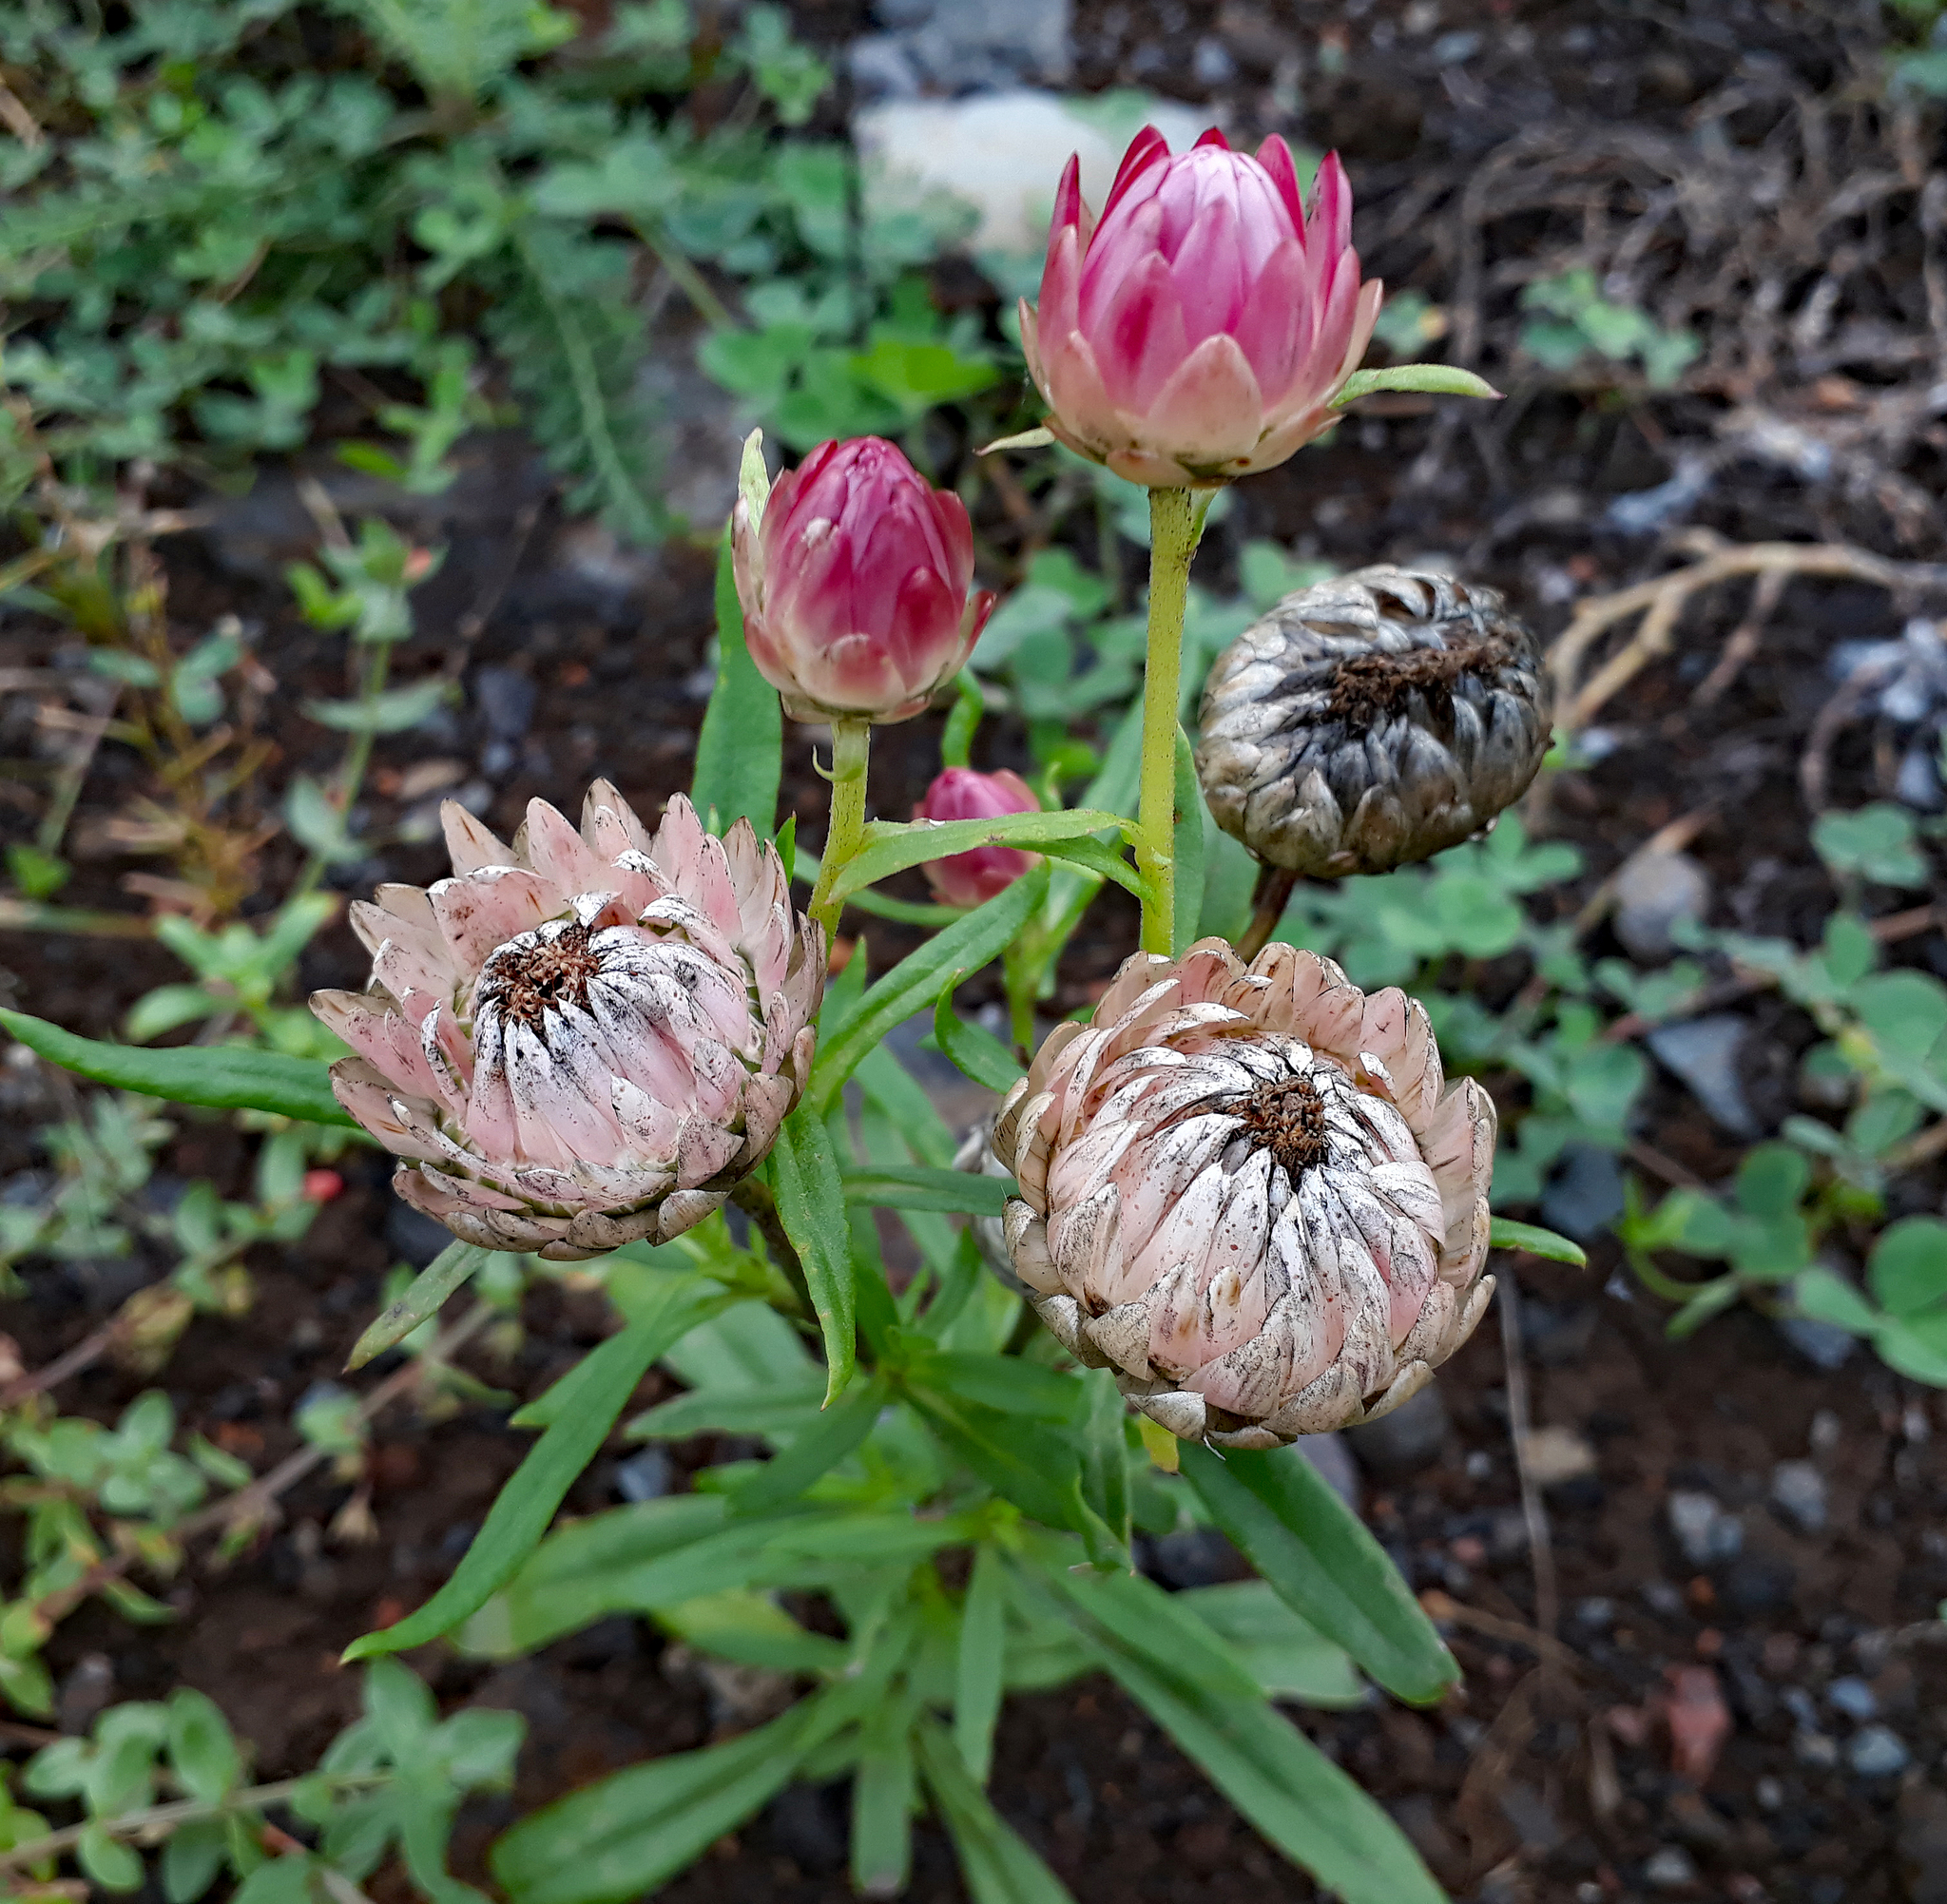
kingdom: Plantae
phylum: Tracheophyta
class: Magnoliopsida
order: Asterales
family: Asteraceae
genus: Xerochrysum
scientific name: Xerochrysum bracteatum
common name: Bracted strawflower
